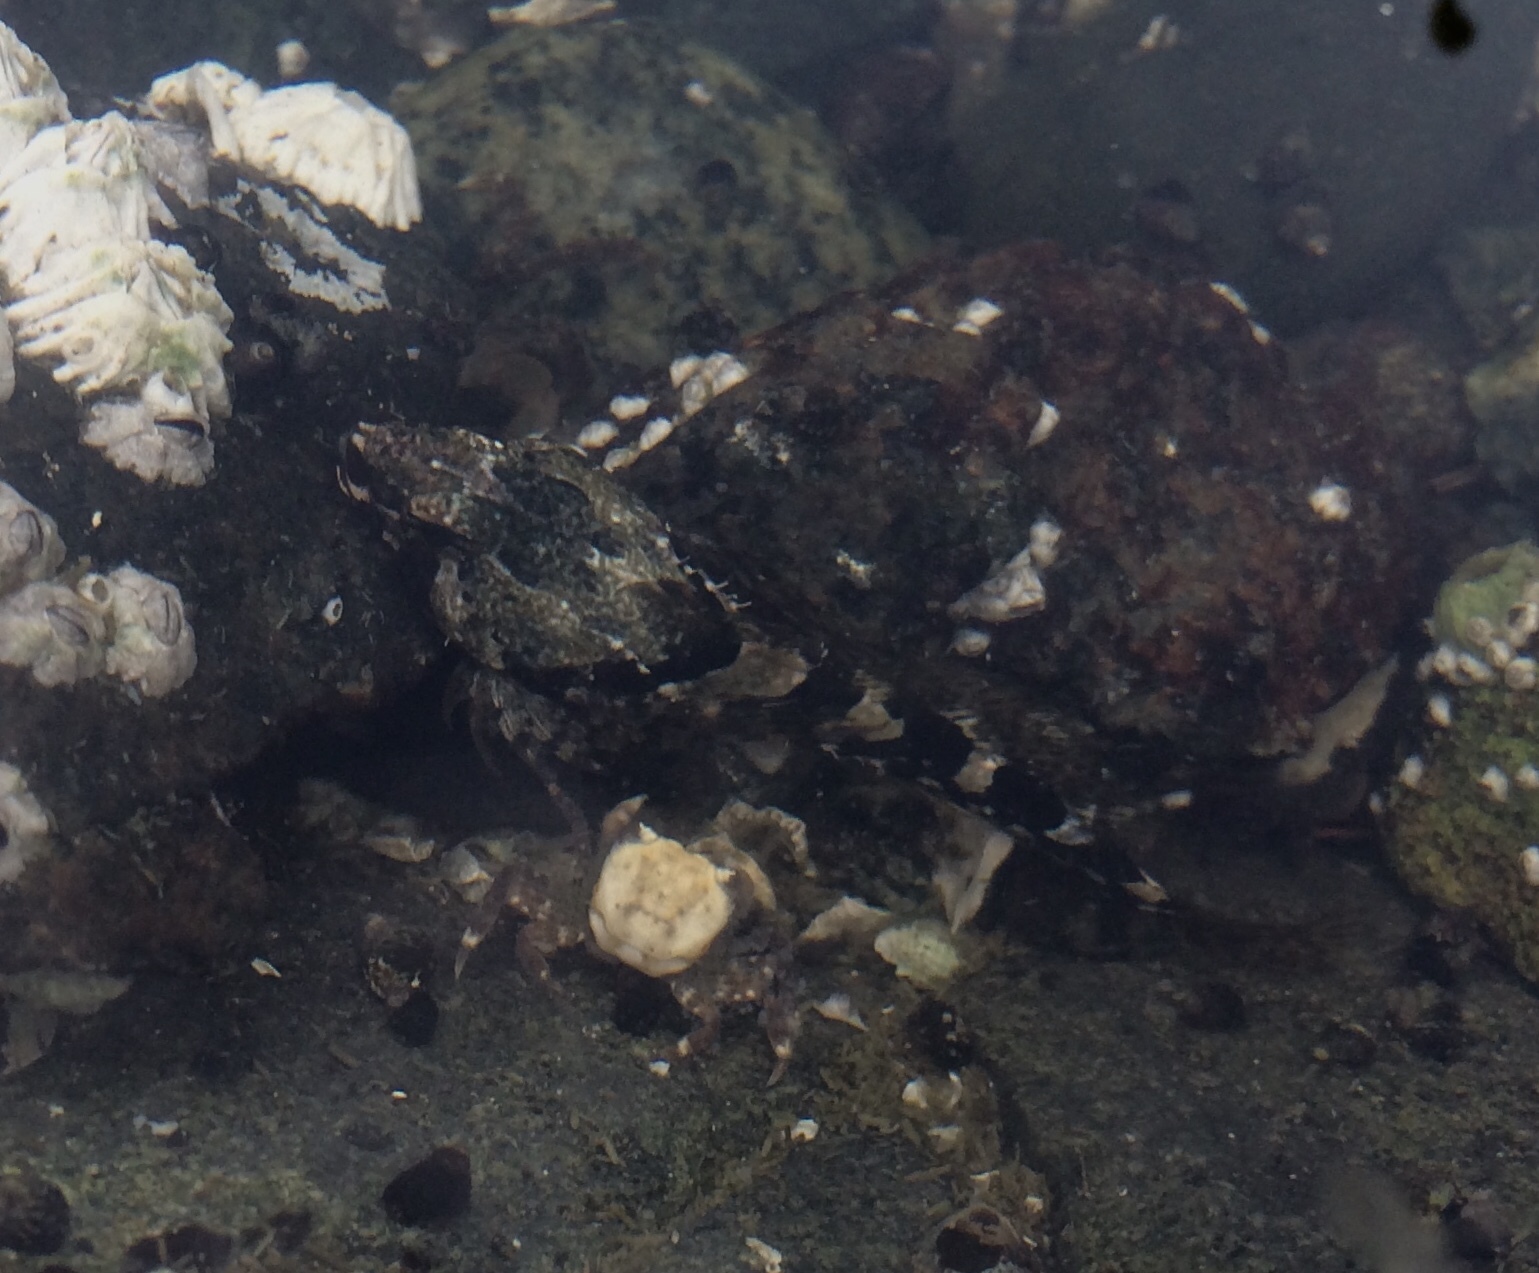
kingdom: Animalia
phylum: Chordata
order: Scorpaeniformes
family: Cottidae
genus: Oligocottus
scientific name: Oligocottus maculosus
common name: Tidepool sculpin
